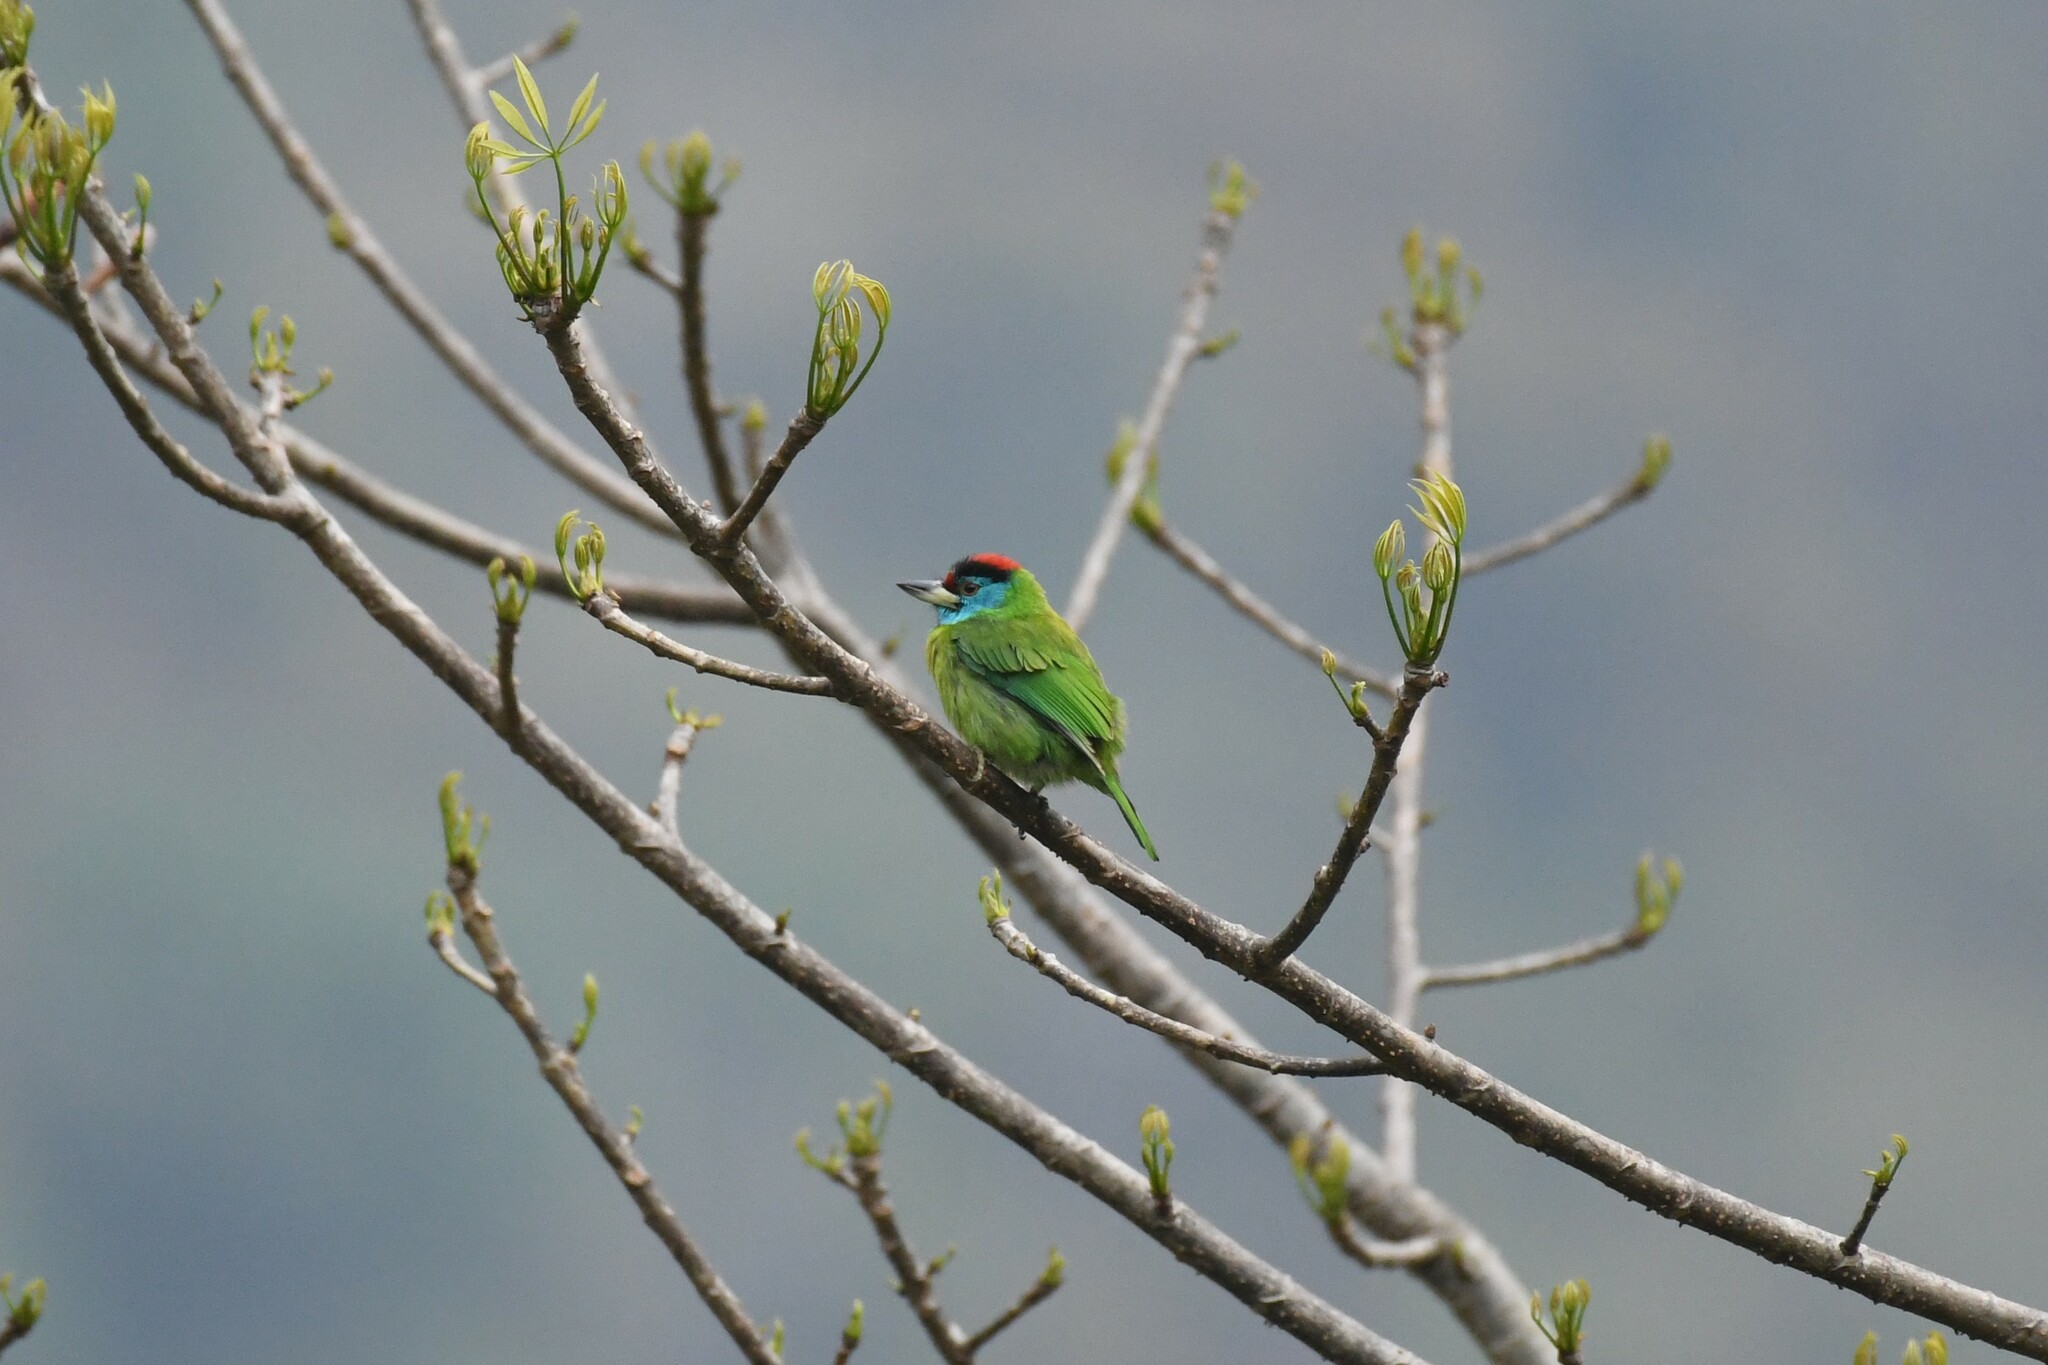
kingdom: Animalia
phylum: Chordata
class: Aves
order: Piciformes
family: Megalaimidae
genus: Psilopogon
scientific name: Psilopogon asiaticus
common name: Blue-throated barbet
